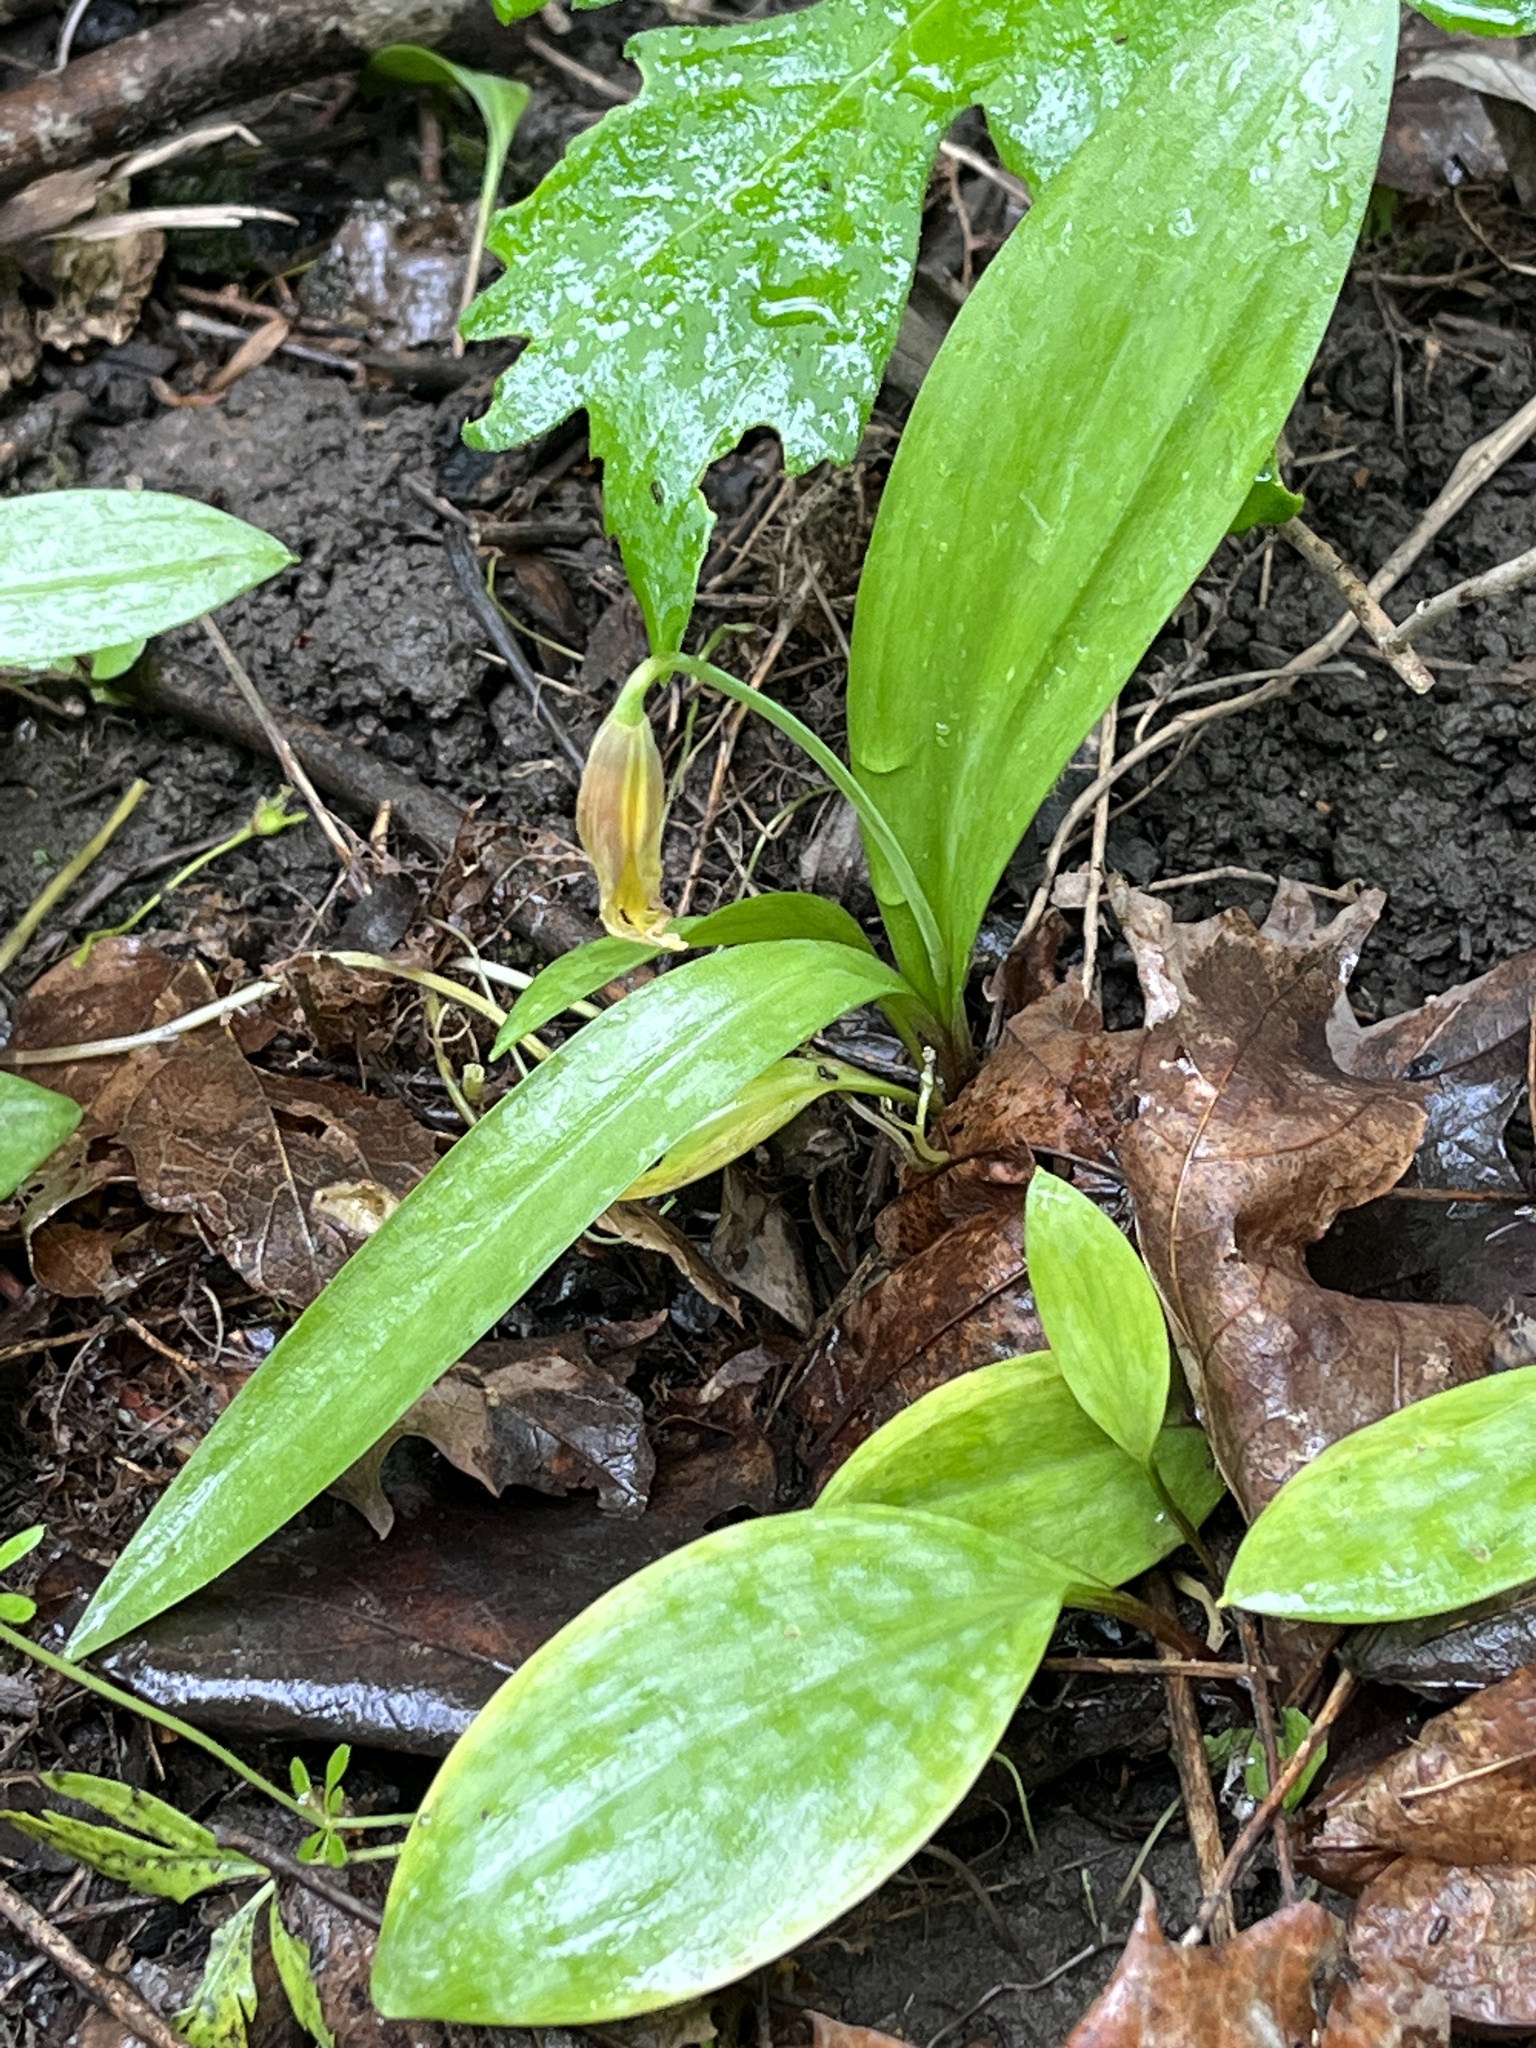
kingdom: Plantae
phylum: Tracheophyta
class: Liliopsida
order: Liliales
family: Liliaceae
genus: Erythronium
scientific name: Erythronium americanum
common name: Yellow adder's-tongue
